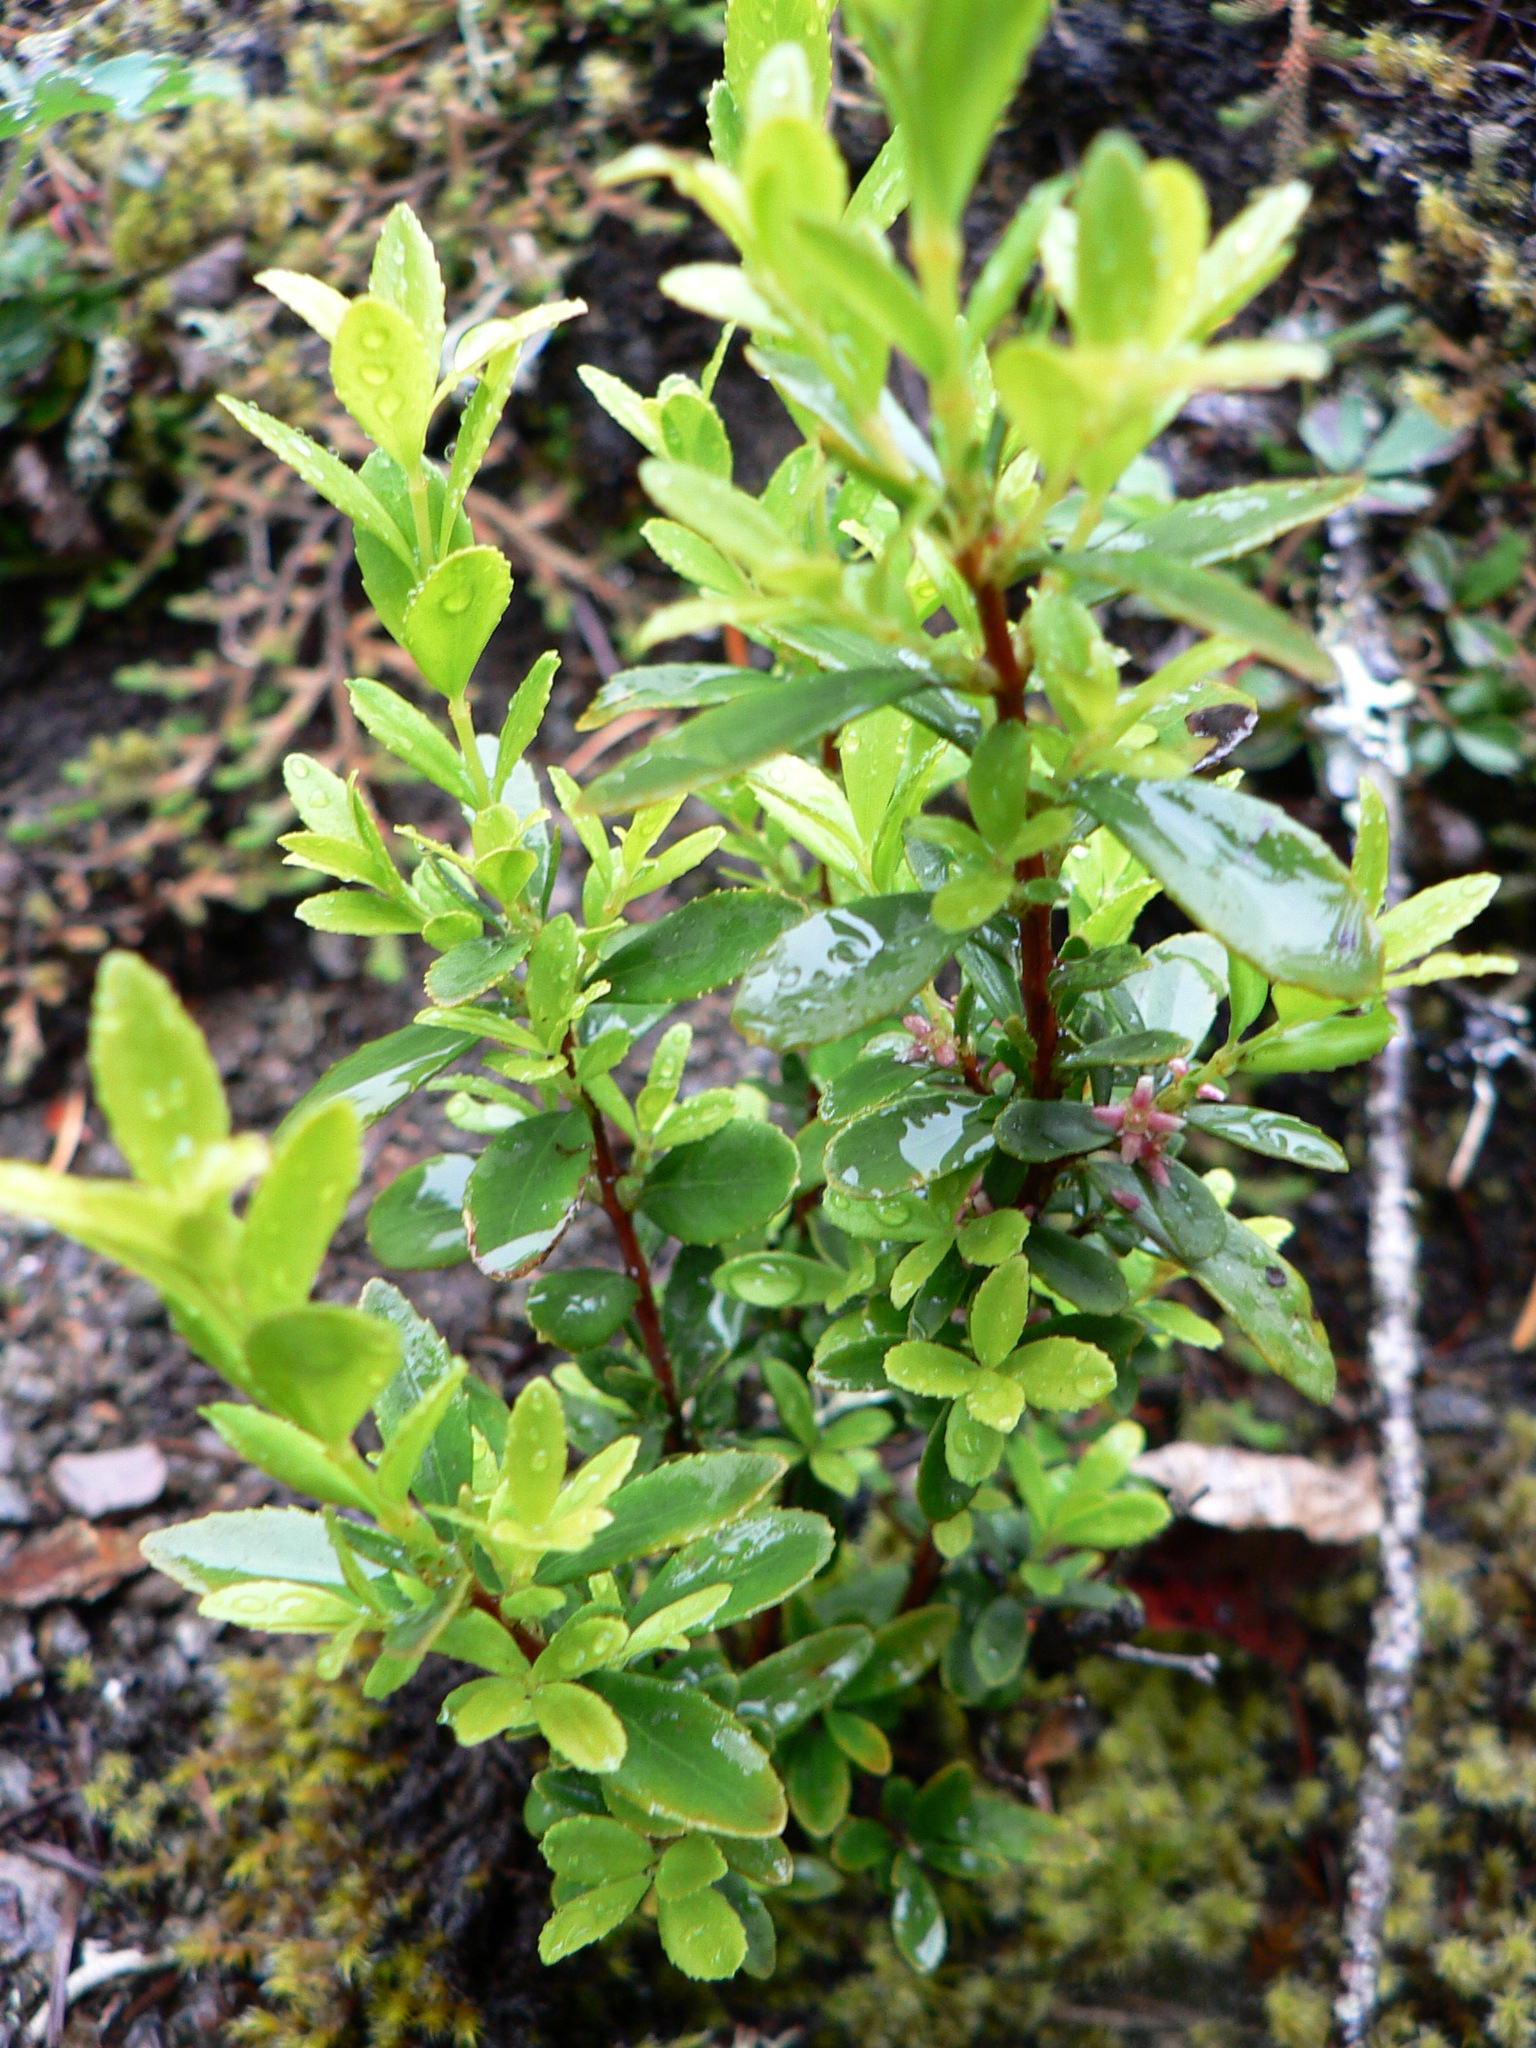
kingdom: Plantae
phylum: Tracheophyta
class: Magnoliopsida
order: Celastrales
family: Celastraceae
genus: Paxistima
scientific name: Paxistima myrsinites
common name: Mountain-lover
